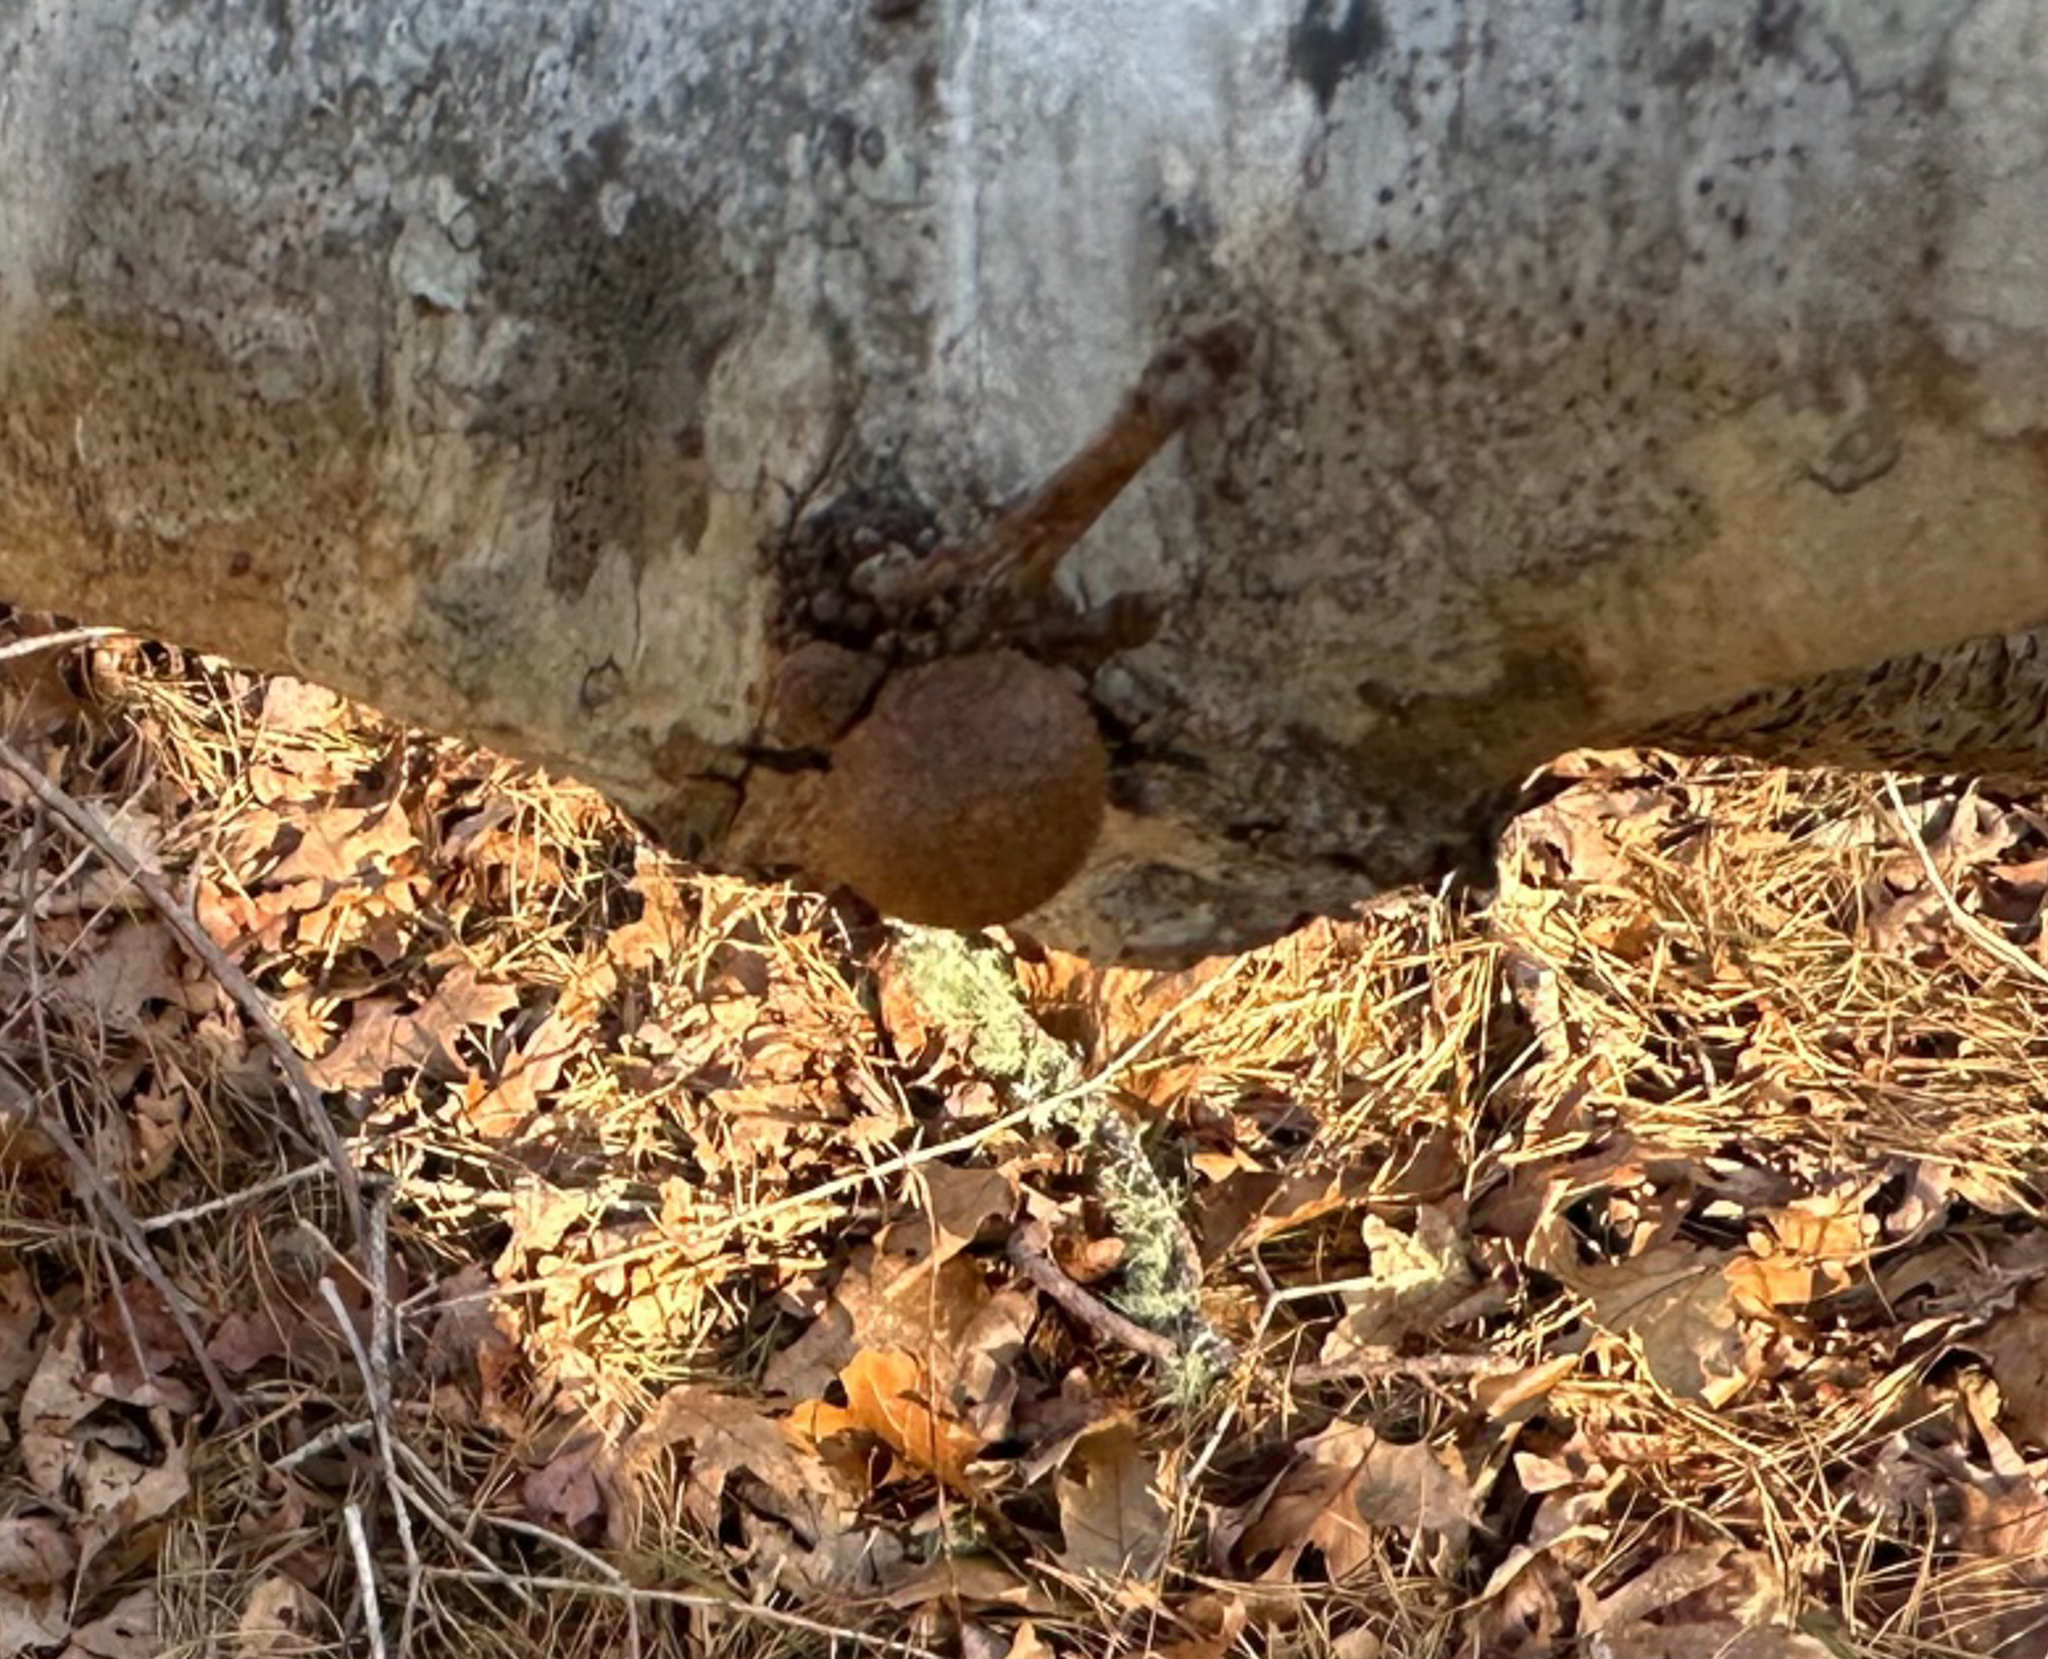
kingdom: Animalia
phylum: Arthropoda
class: Insecta
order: Hymenoptera
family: Cynipidae
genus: Disholcaspis
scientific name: Disholcaspis quercusglobulus
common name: Round bullet gall wasp
